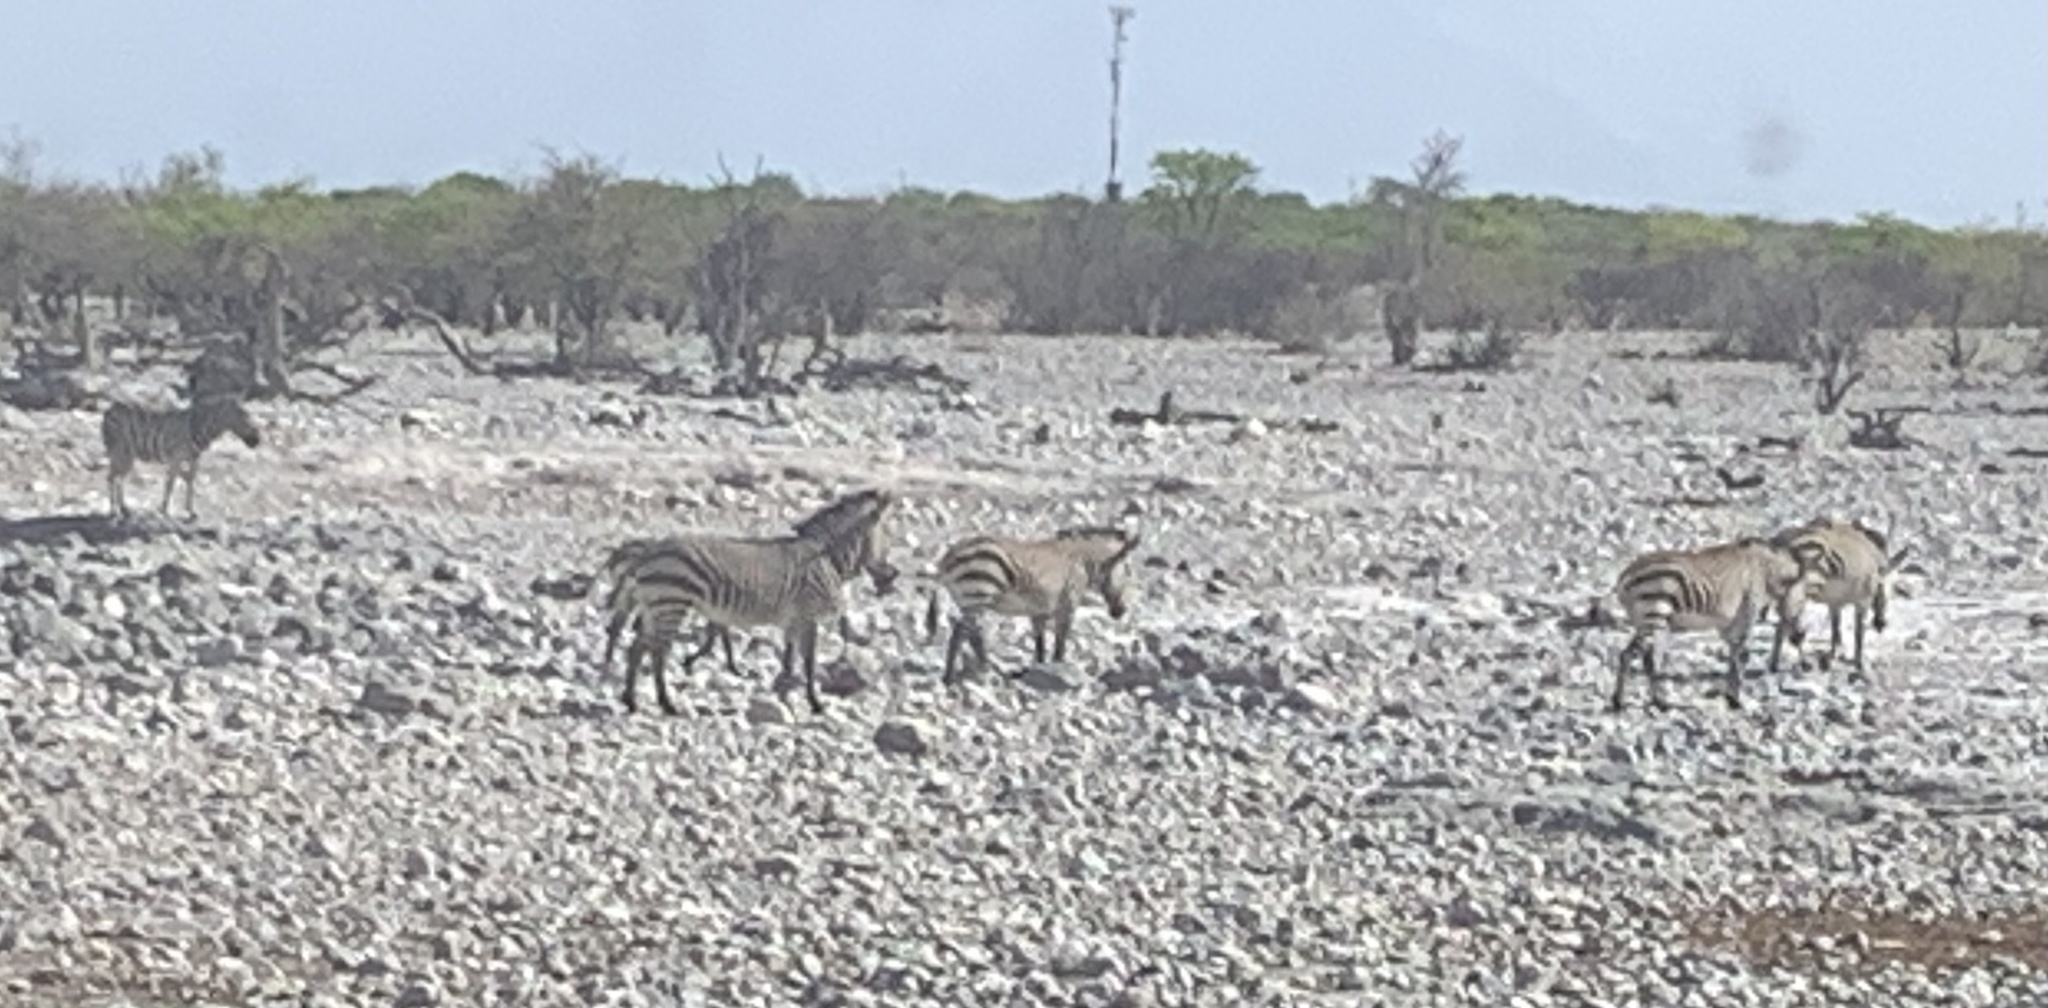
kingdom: Animalia
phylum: Chordata
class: Mammalia
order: Perissodactyla
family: Equidae
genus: Equus
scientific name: Equus hartmannae
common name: Hartmann's mountain zebra
